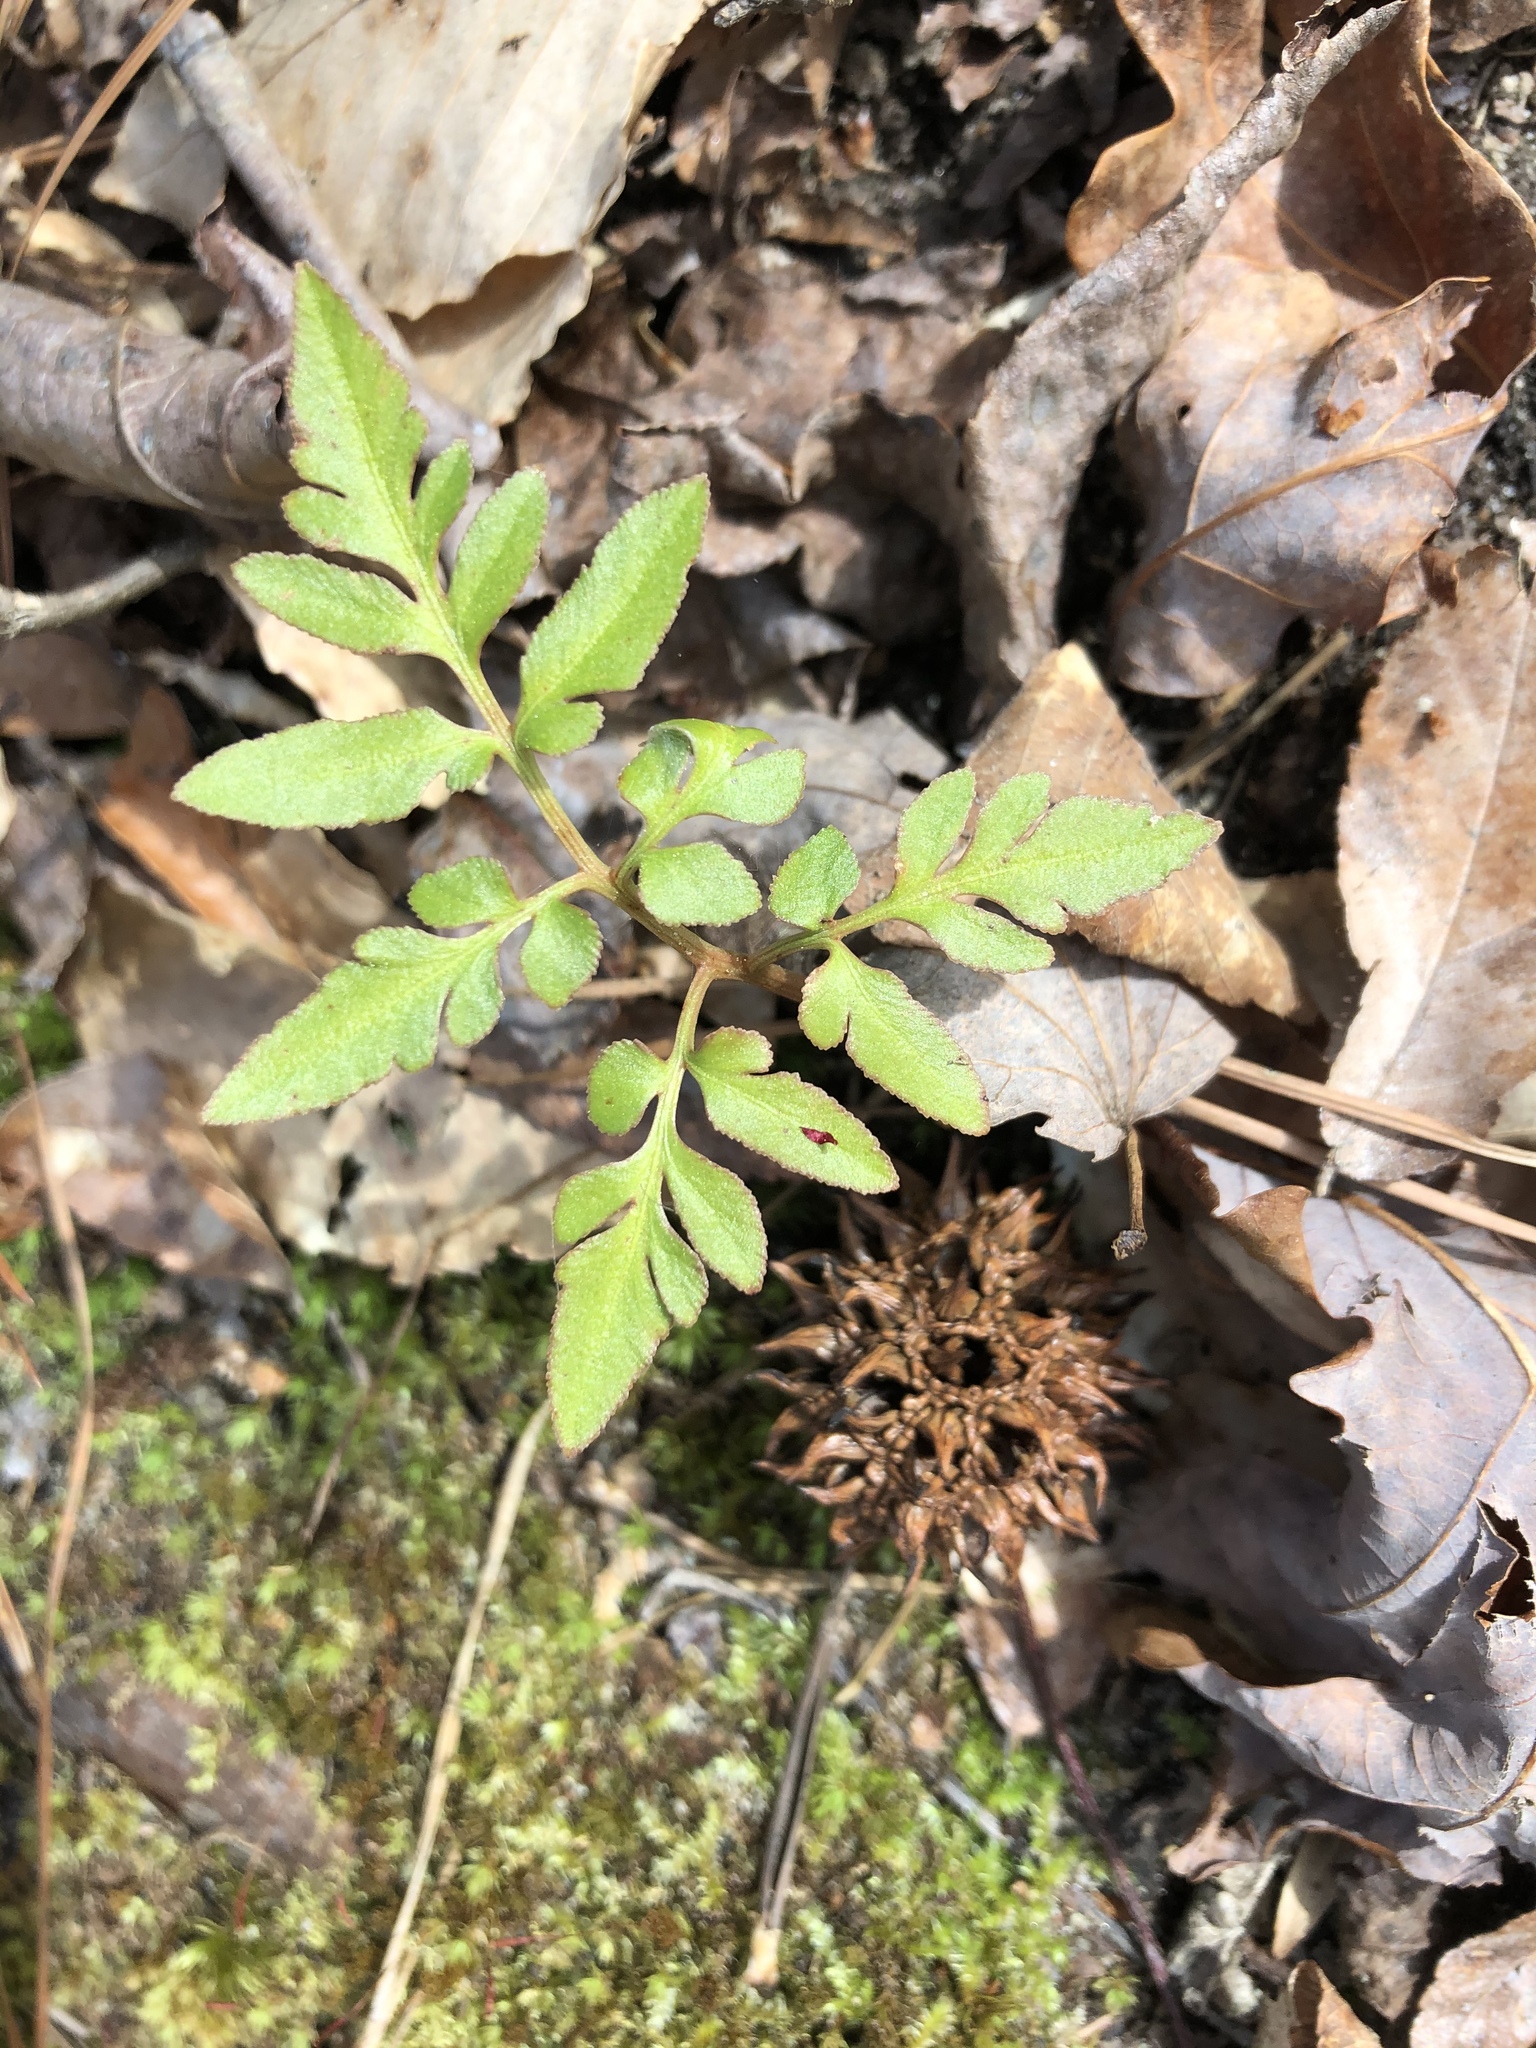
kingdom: Plantae
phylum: Tracheophyta
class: Polypodiopsida
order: Ophioglossales
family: Ophioglossaceae
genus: Sceptridium
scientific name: Sceptridium dissectum
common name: Cut-leaved grapefern
